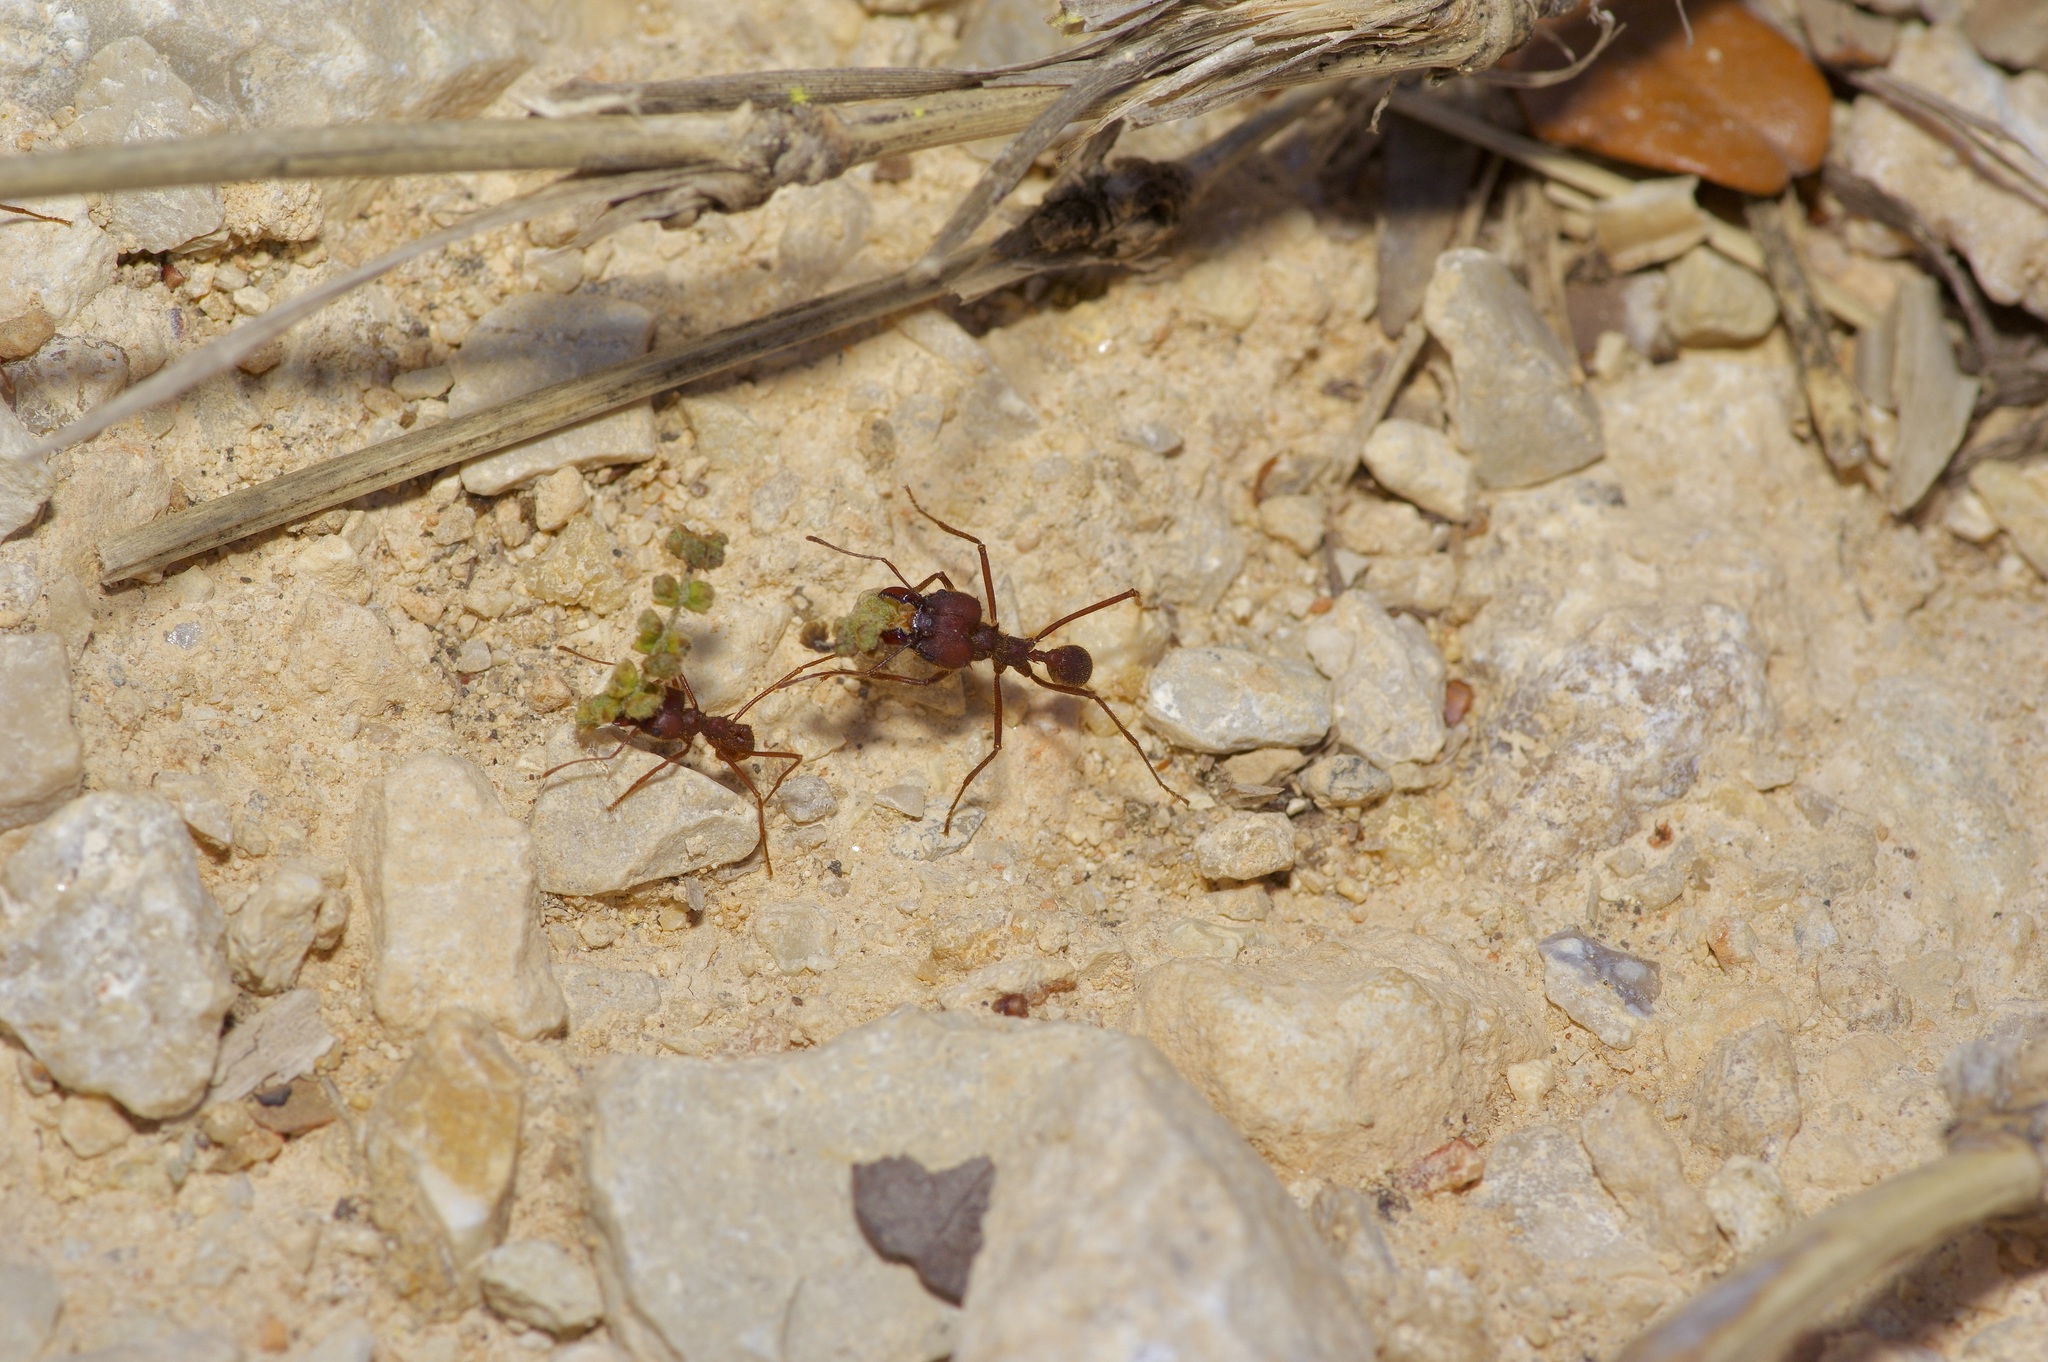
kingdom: Animalia
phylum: Arthropoda
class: Insecta
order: Hymenoptera
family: Formicidae
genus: Atta
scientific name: Atta texana
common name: Texas leafcutting ant
